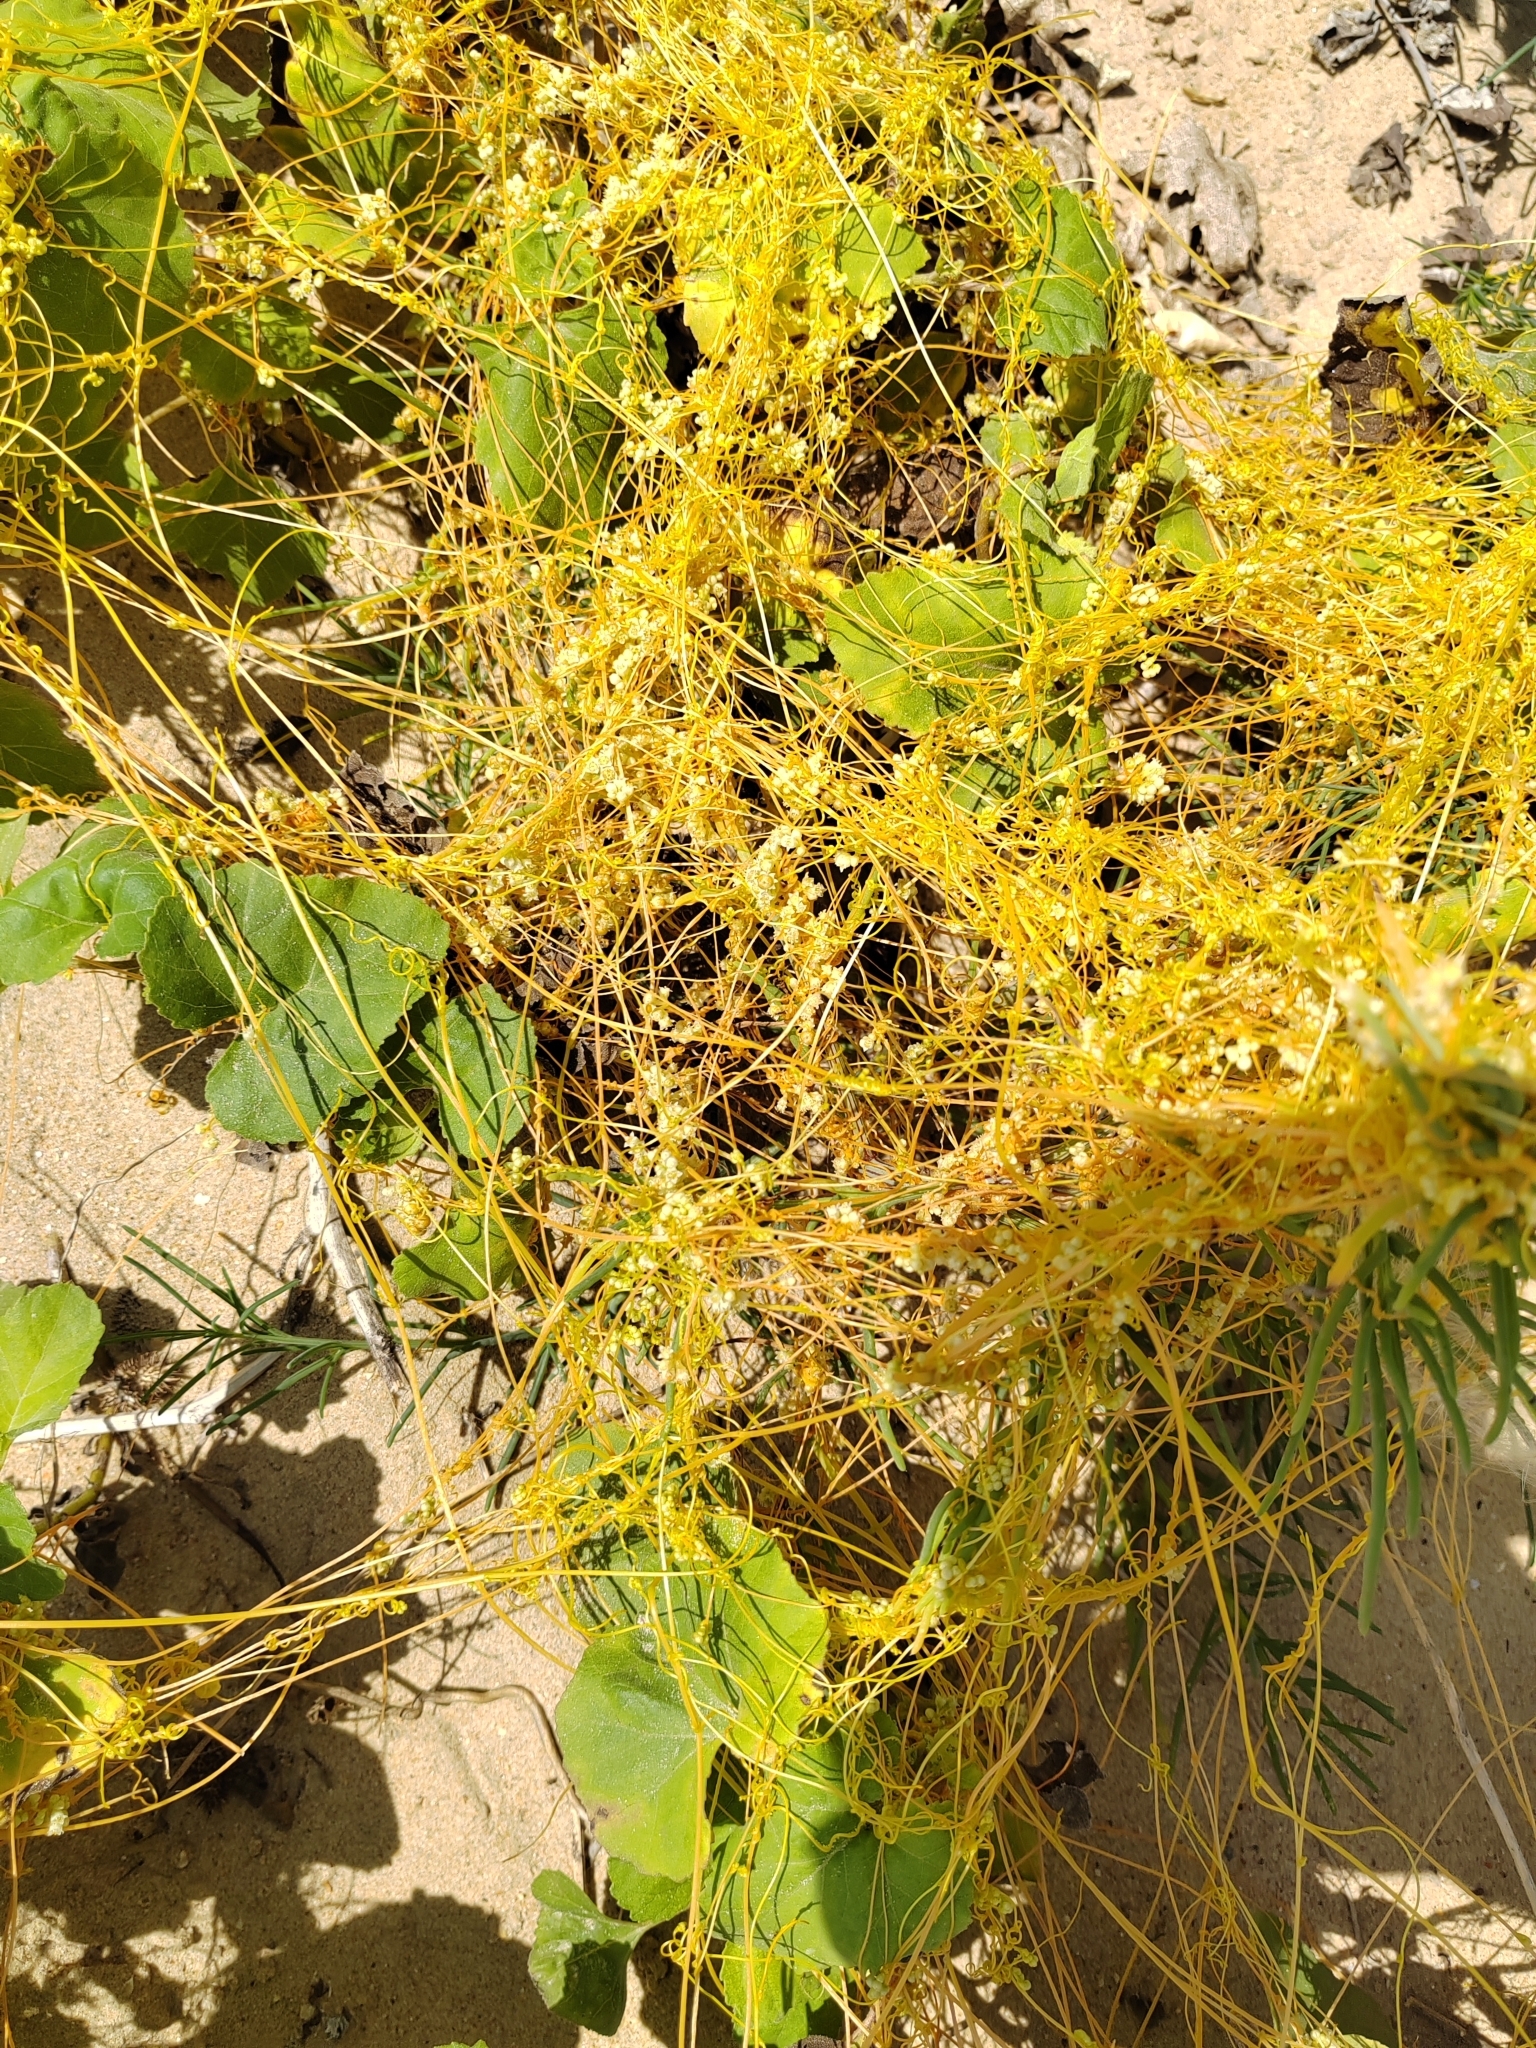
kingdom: Plantae
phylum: Tracheophyta
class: Magnoliopsida
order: Solanales
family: Convolvulaceae
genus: Cuscuta
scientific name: Cuscuta campestris
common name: Yellow dodder
